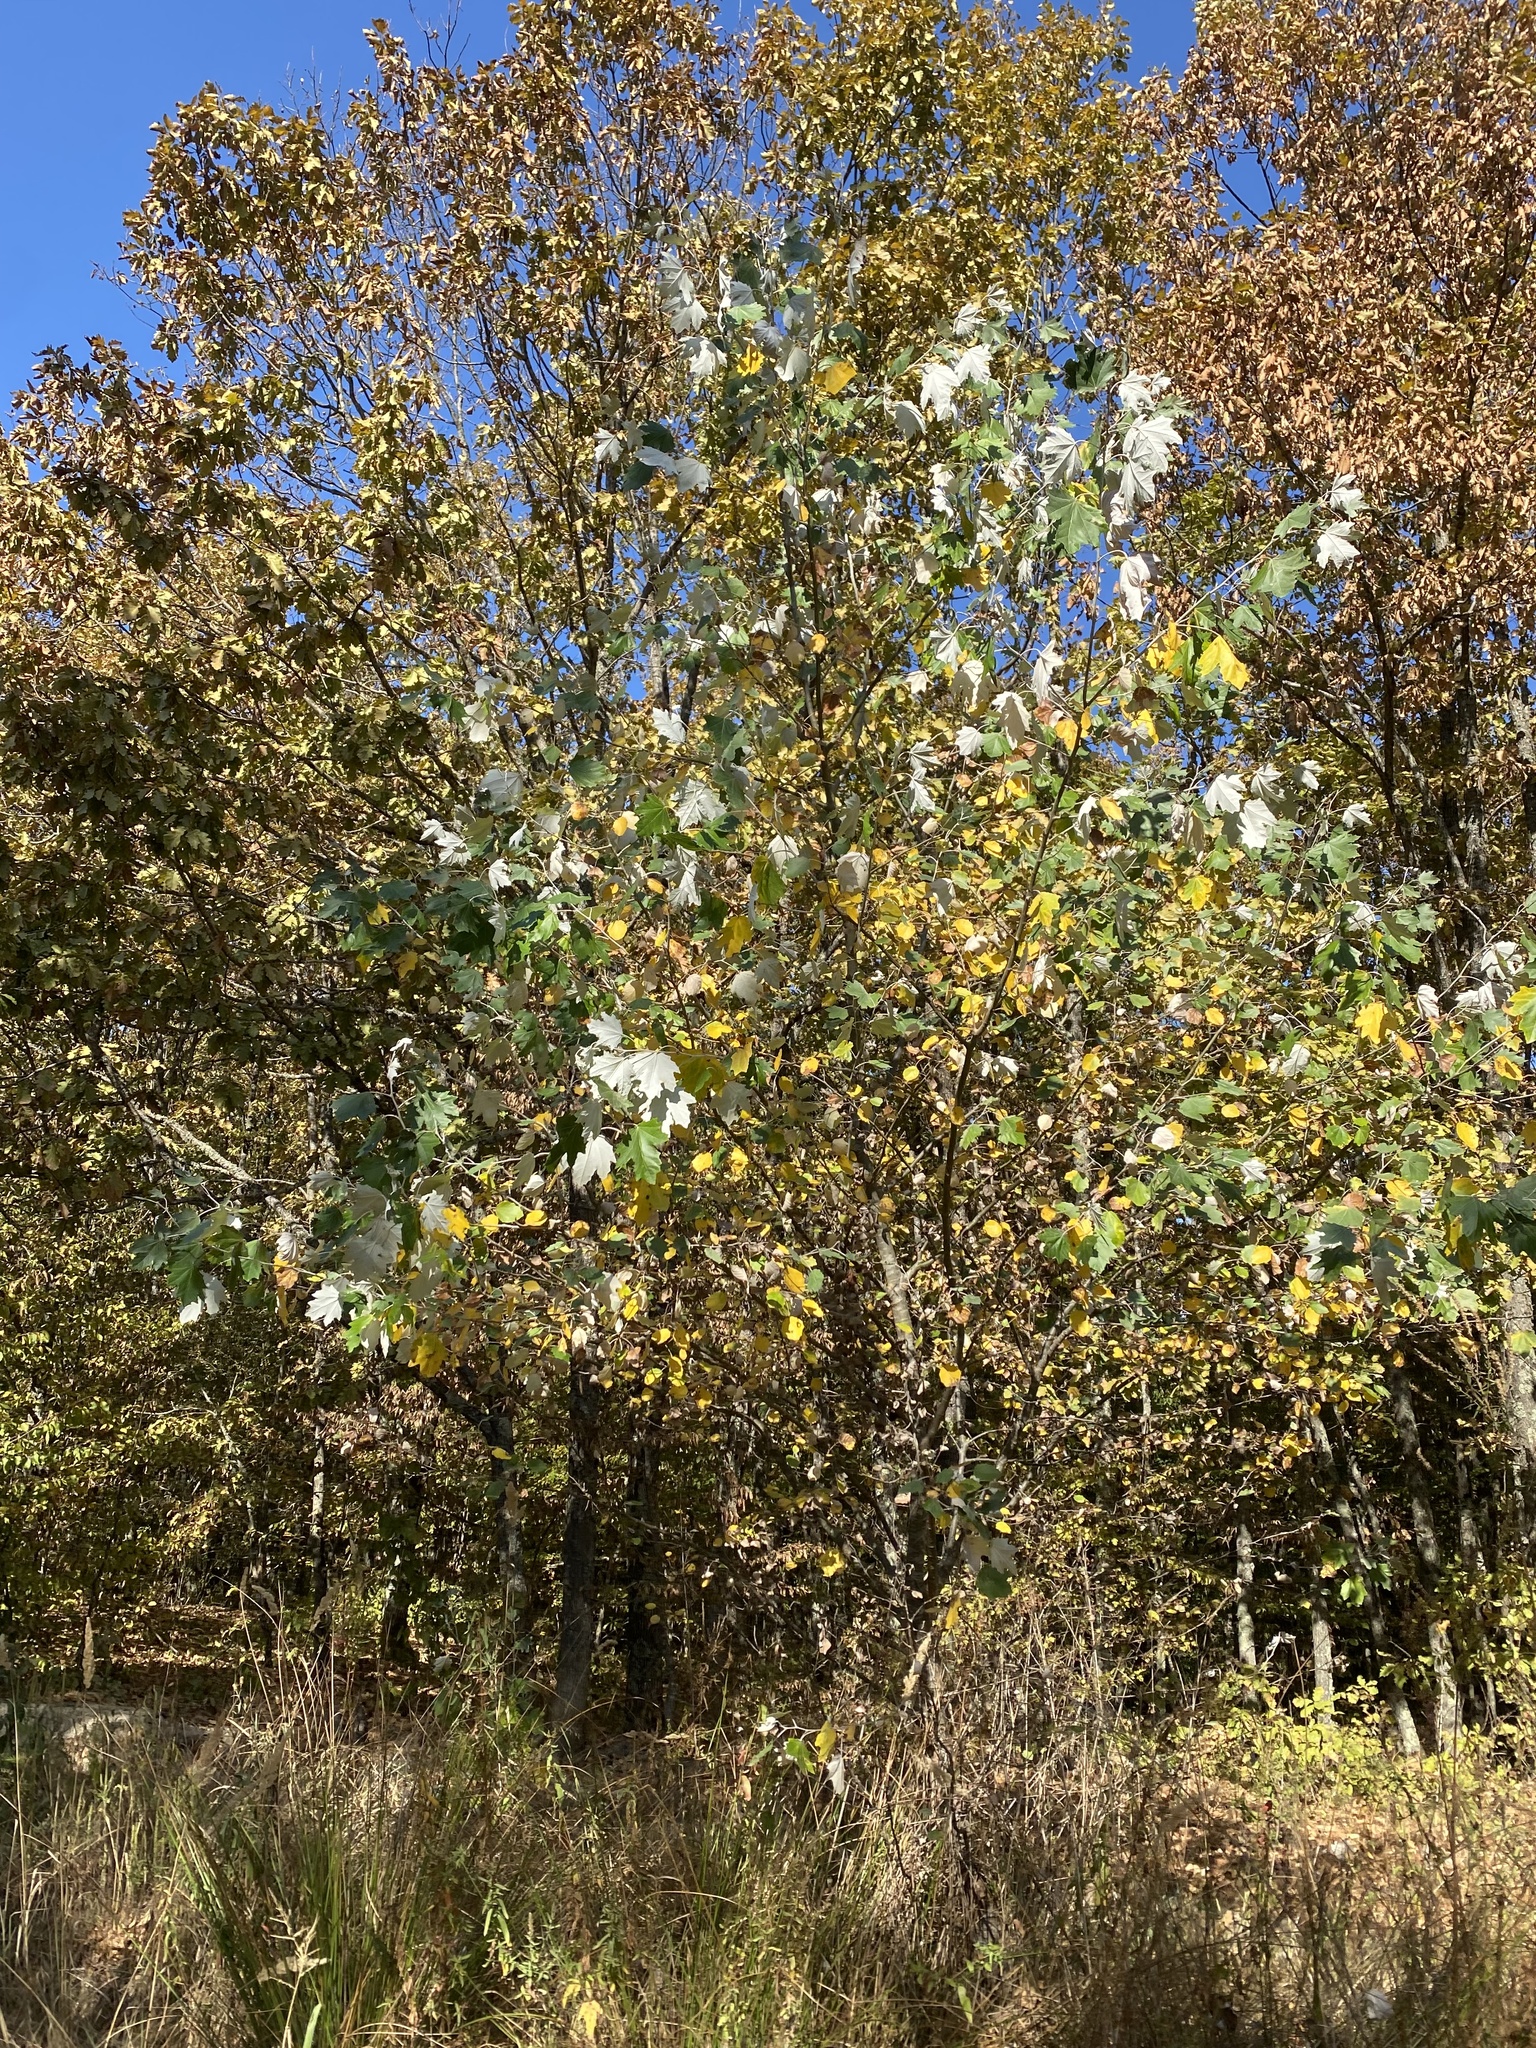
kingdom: Plantae
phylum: Tracheophyta
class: Magnoliopsida
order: Malpighiales
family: Salicaceae
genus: Populus
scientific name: Populus alba
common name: White poplar
